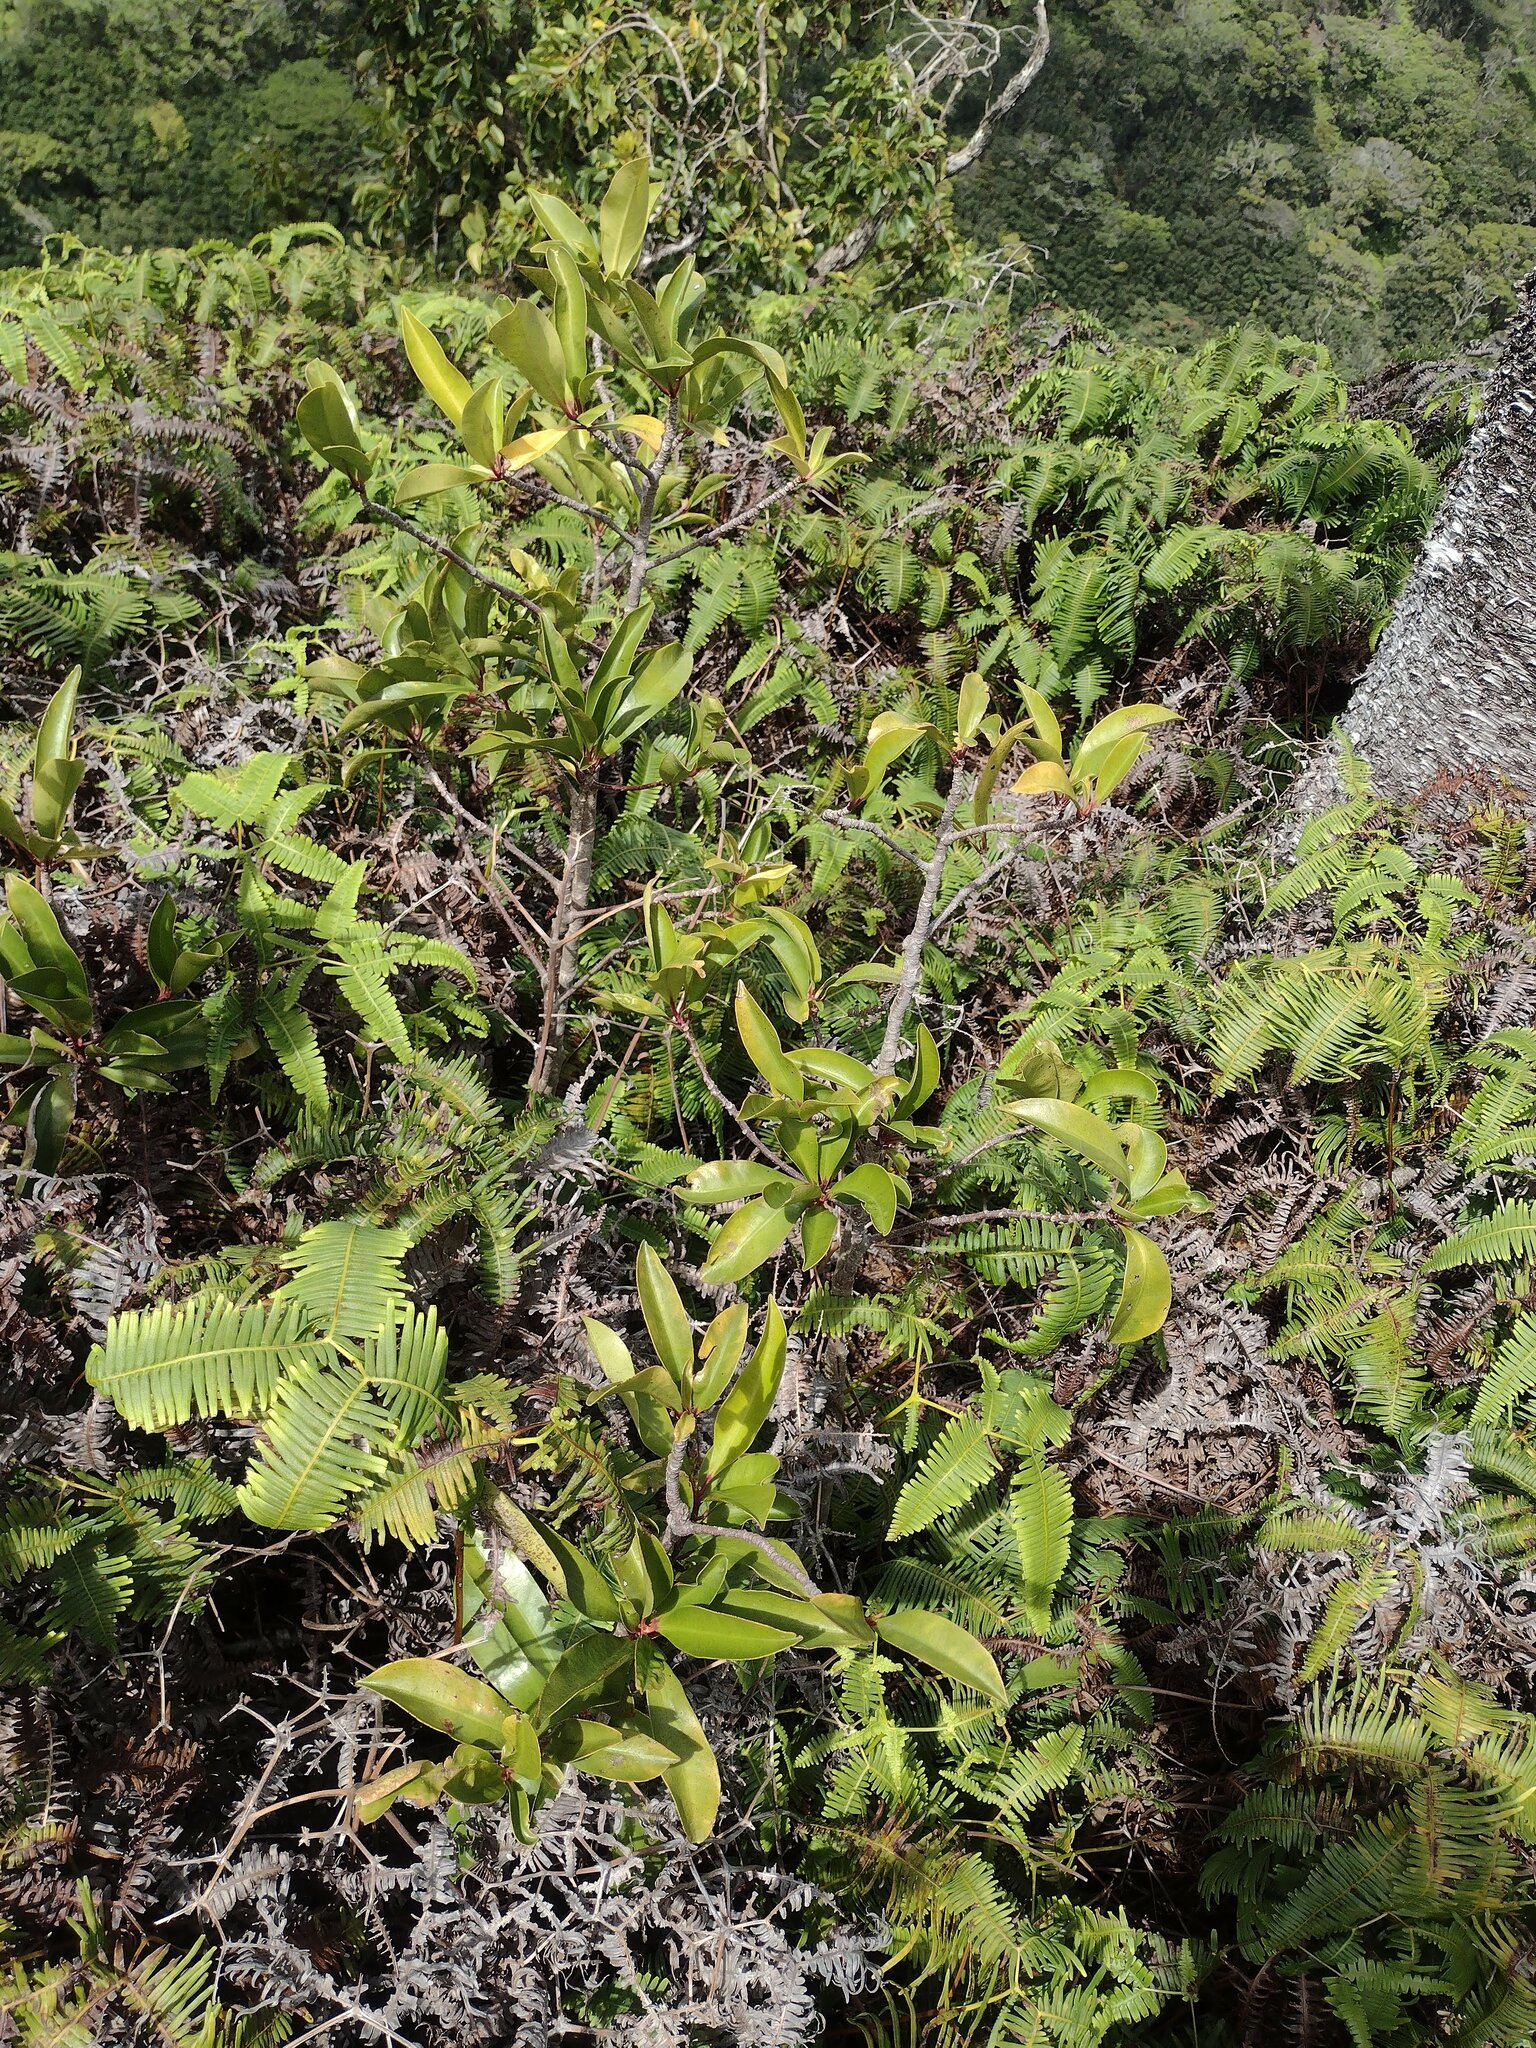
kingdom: Plantae
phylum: Tracheophyta
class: Magnoliopsida
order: Ericales
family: Primulaceae
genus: Ardisia
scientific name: Ardisia elliptica
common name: Shoebutton
